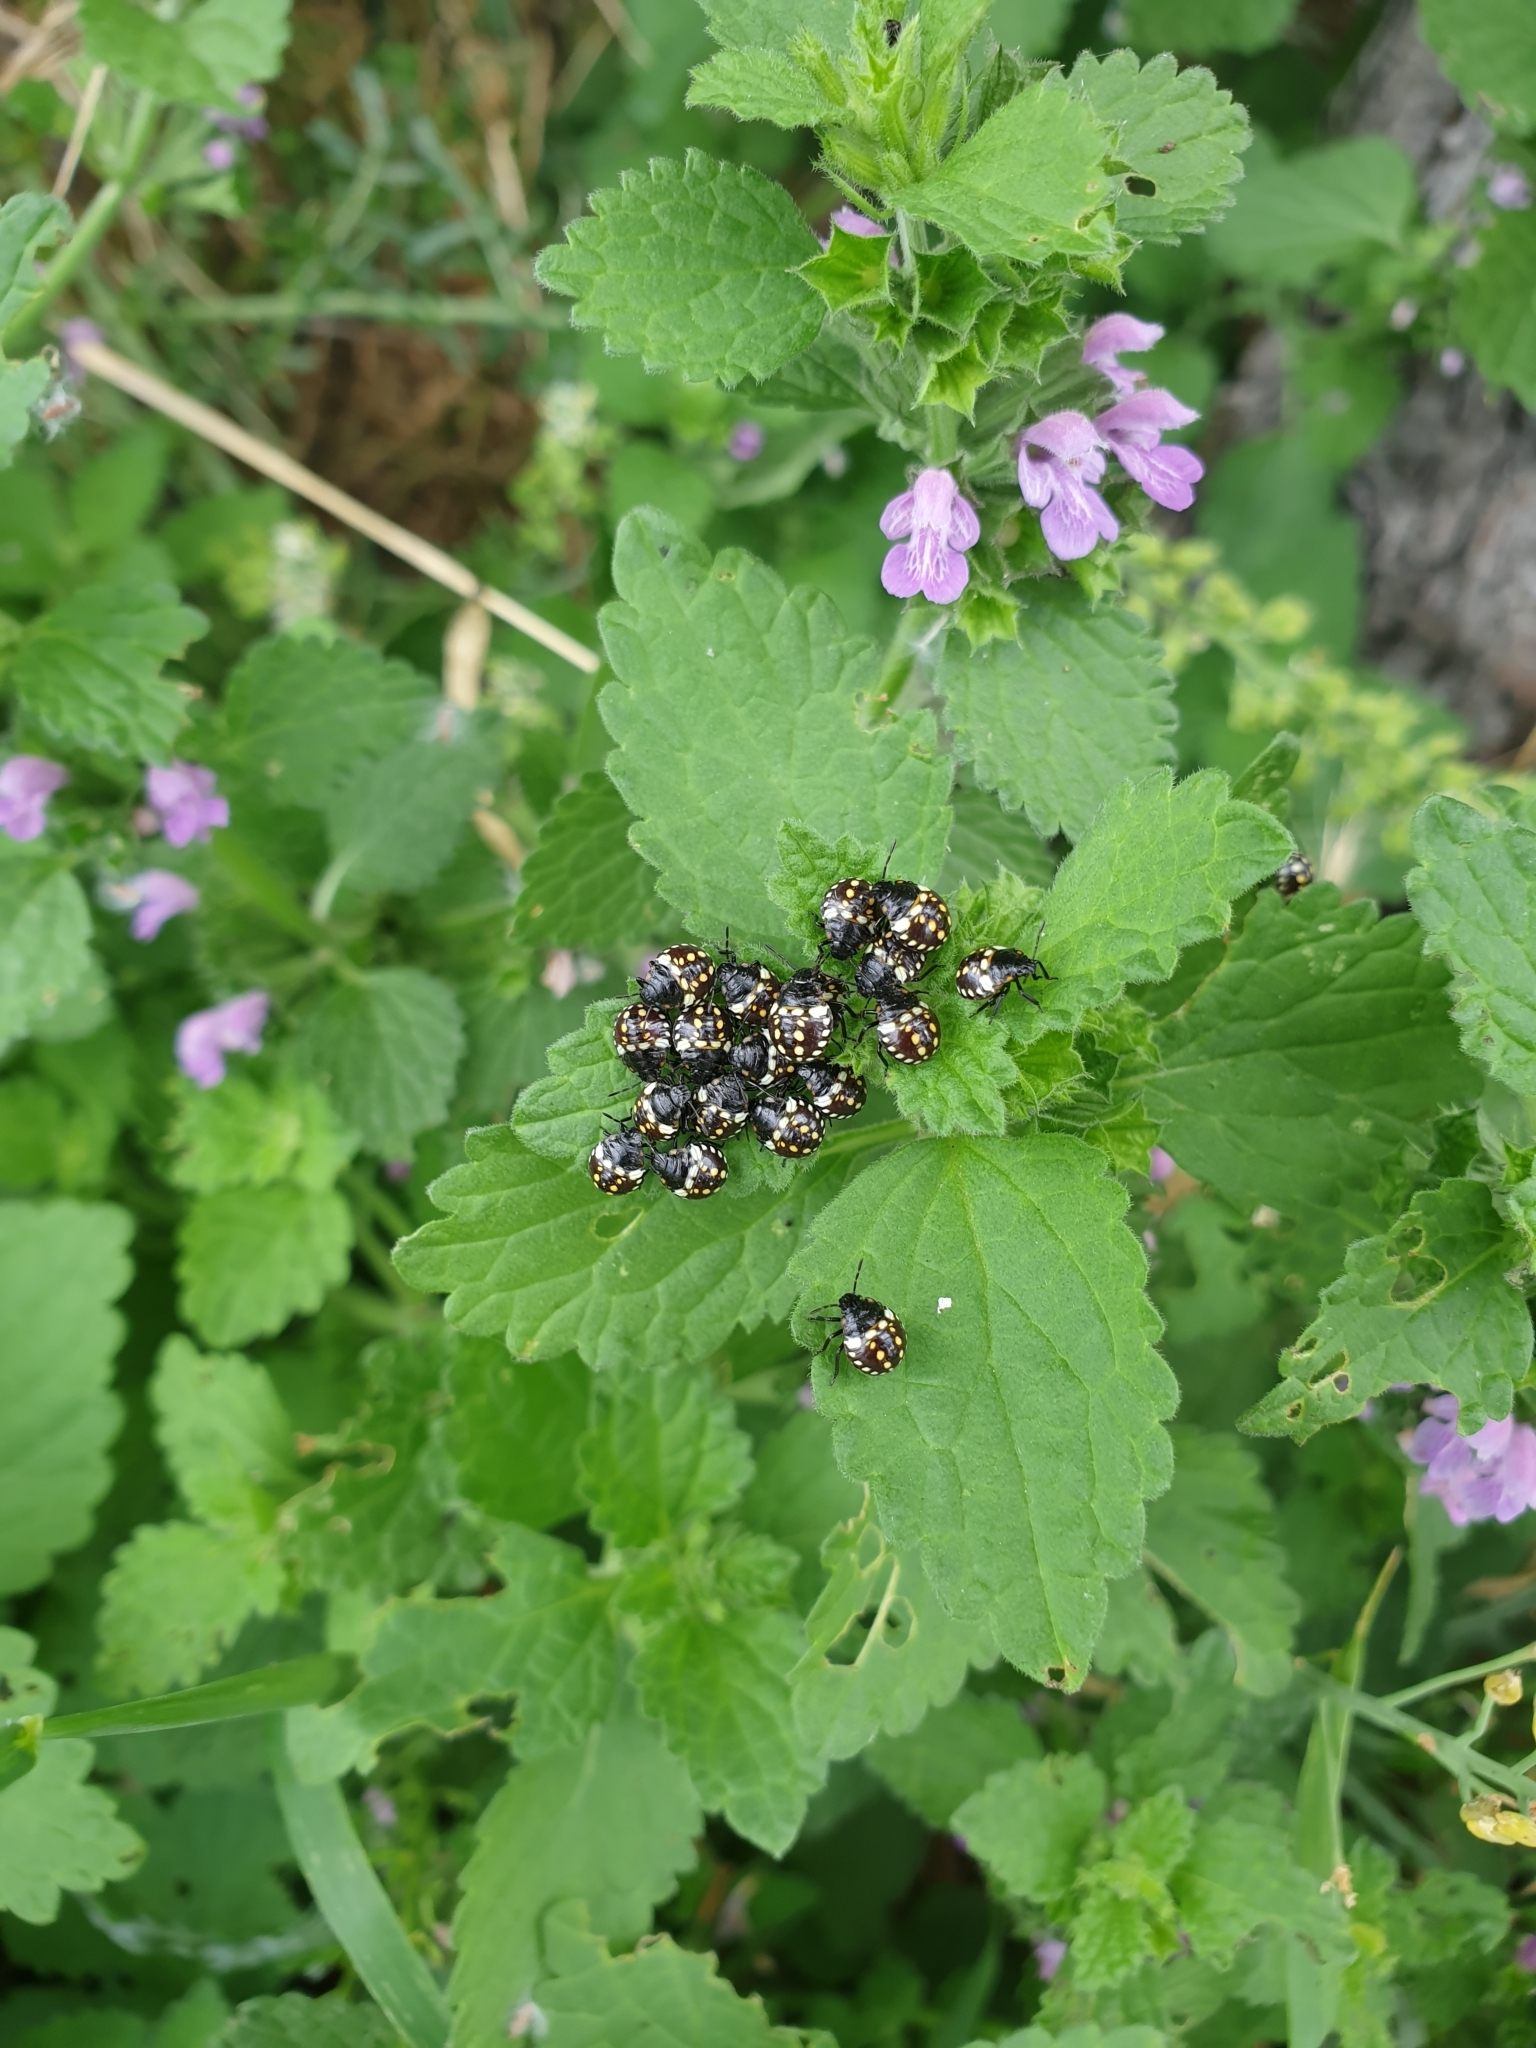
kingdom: Animalia
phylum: Arthropoda
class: Insecta
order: Hemiptera
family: Pentatomidae
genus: Nezara
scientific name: Nezara viridula
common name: Southern green stink bug
